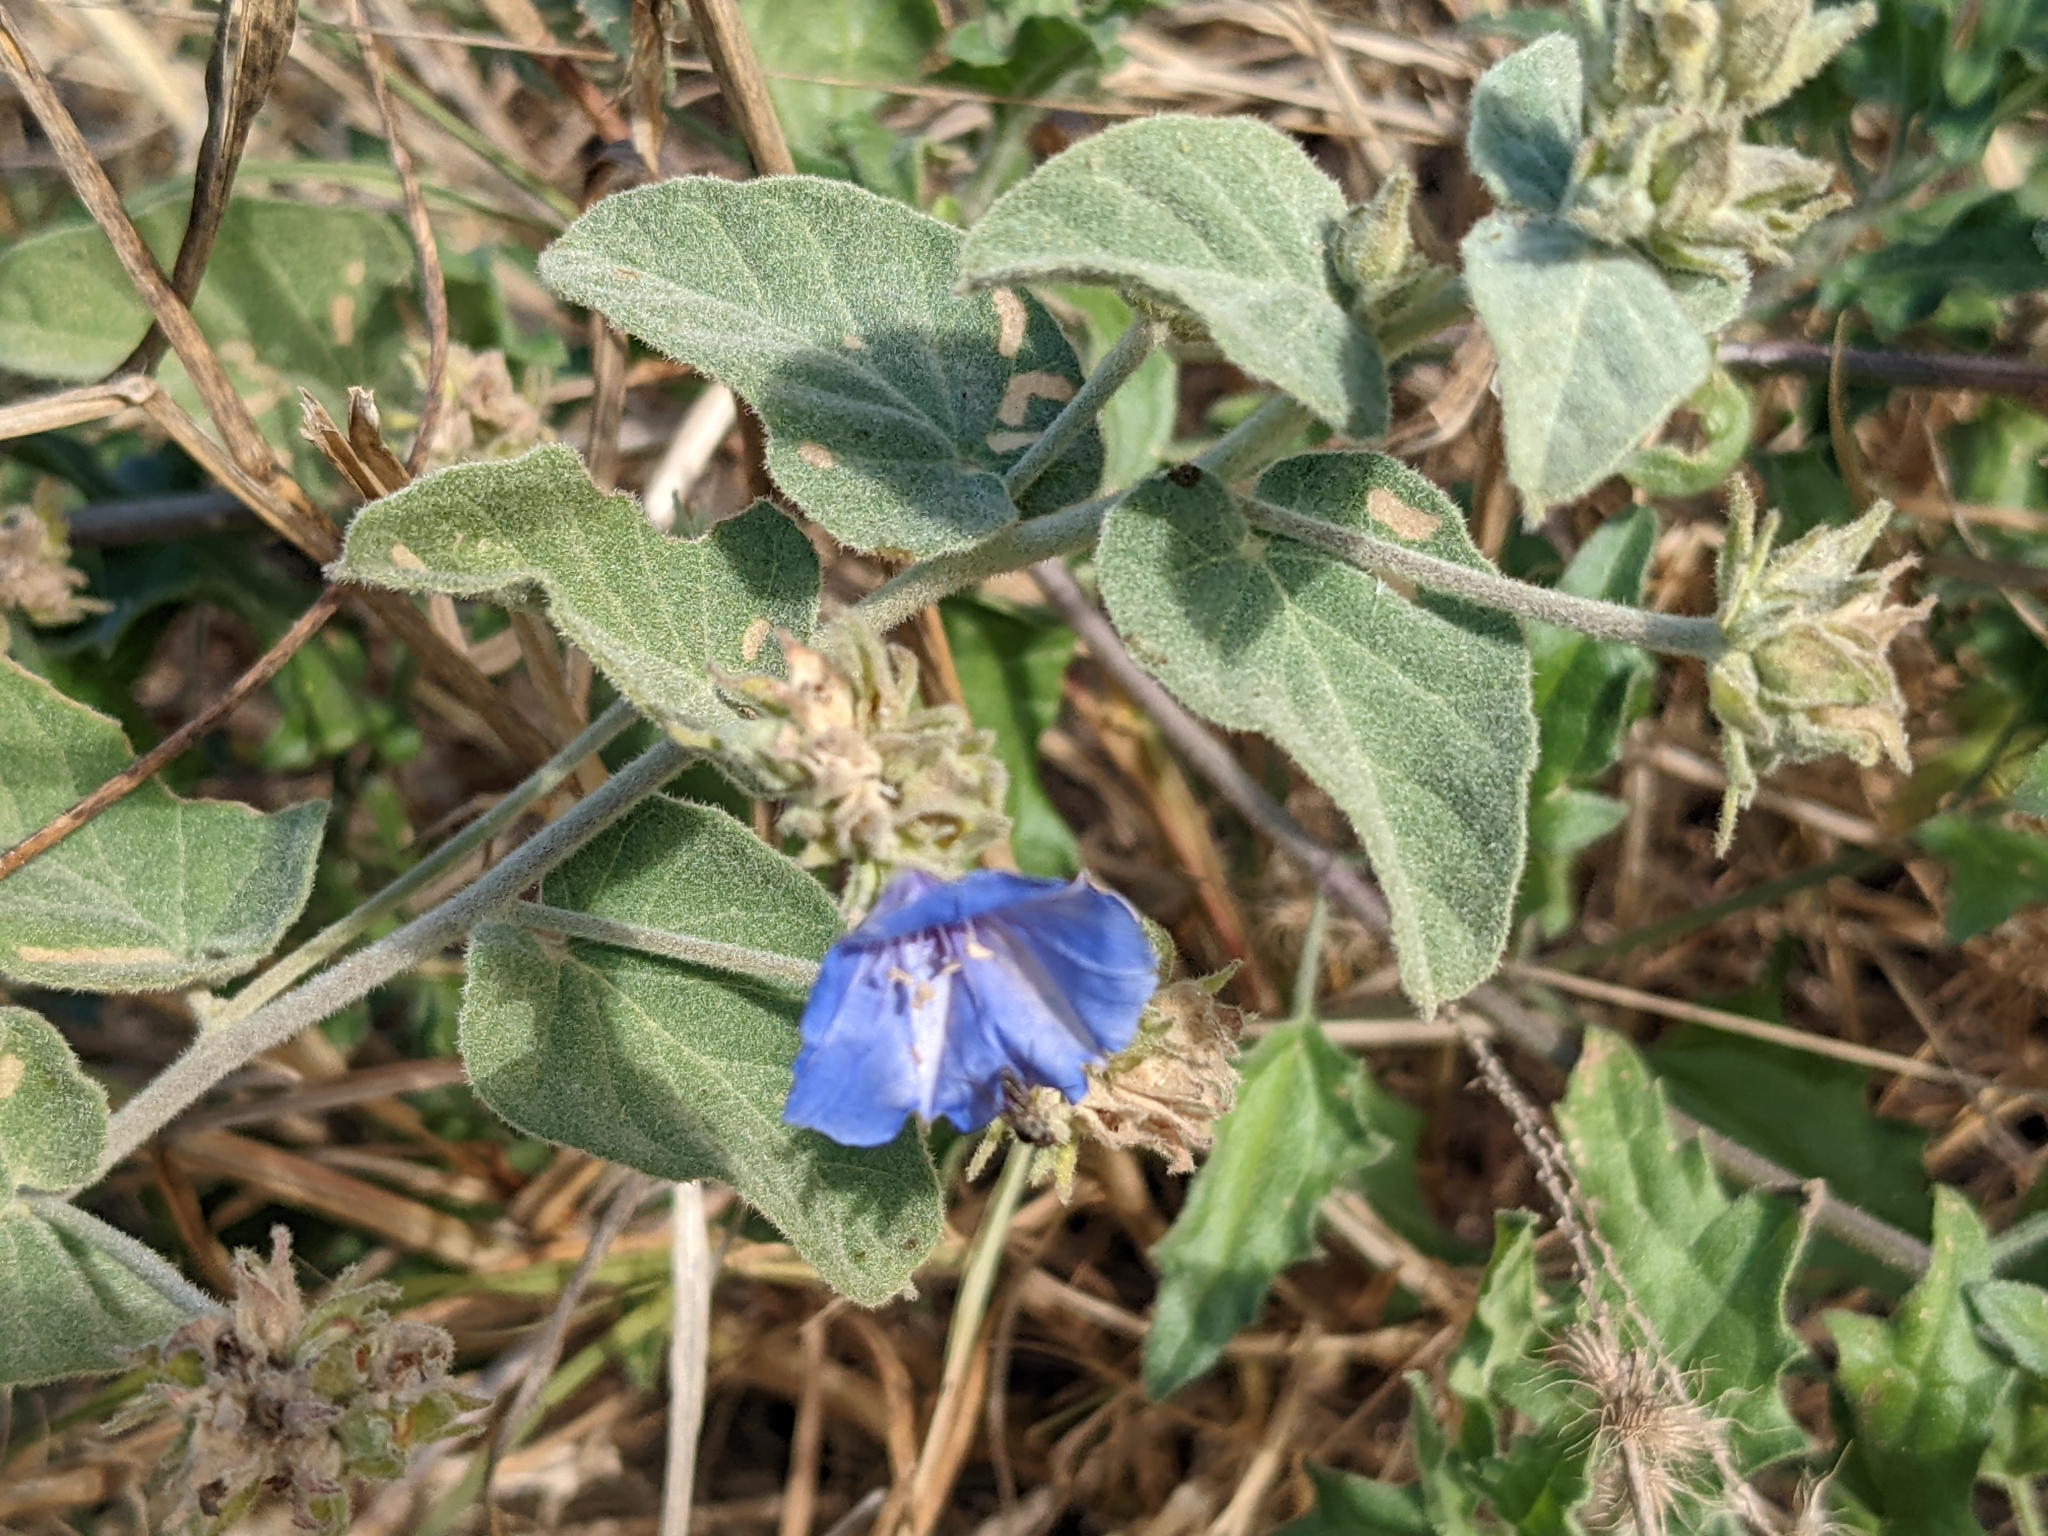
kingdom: Plantae
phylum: Tracheophyta
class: Magnoliopsida
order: Solanales
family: Convolvulaceae
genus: Jacquemontia
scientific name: Jacquemontia abutiloides
